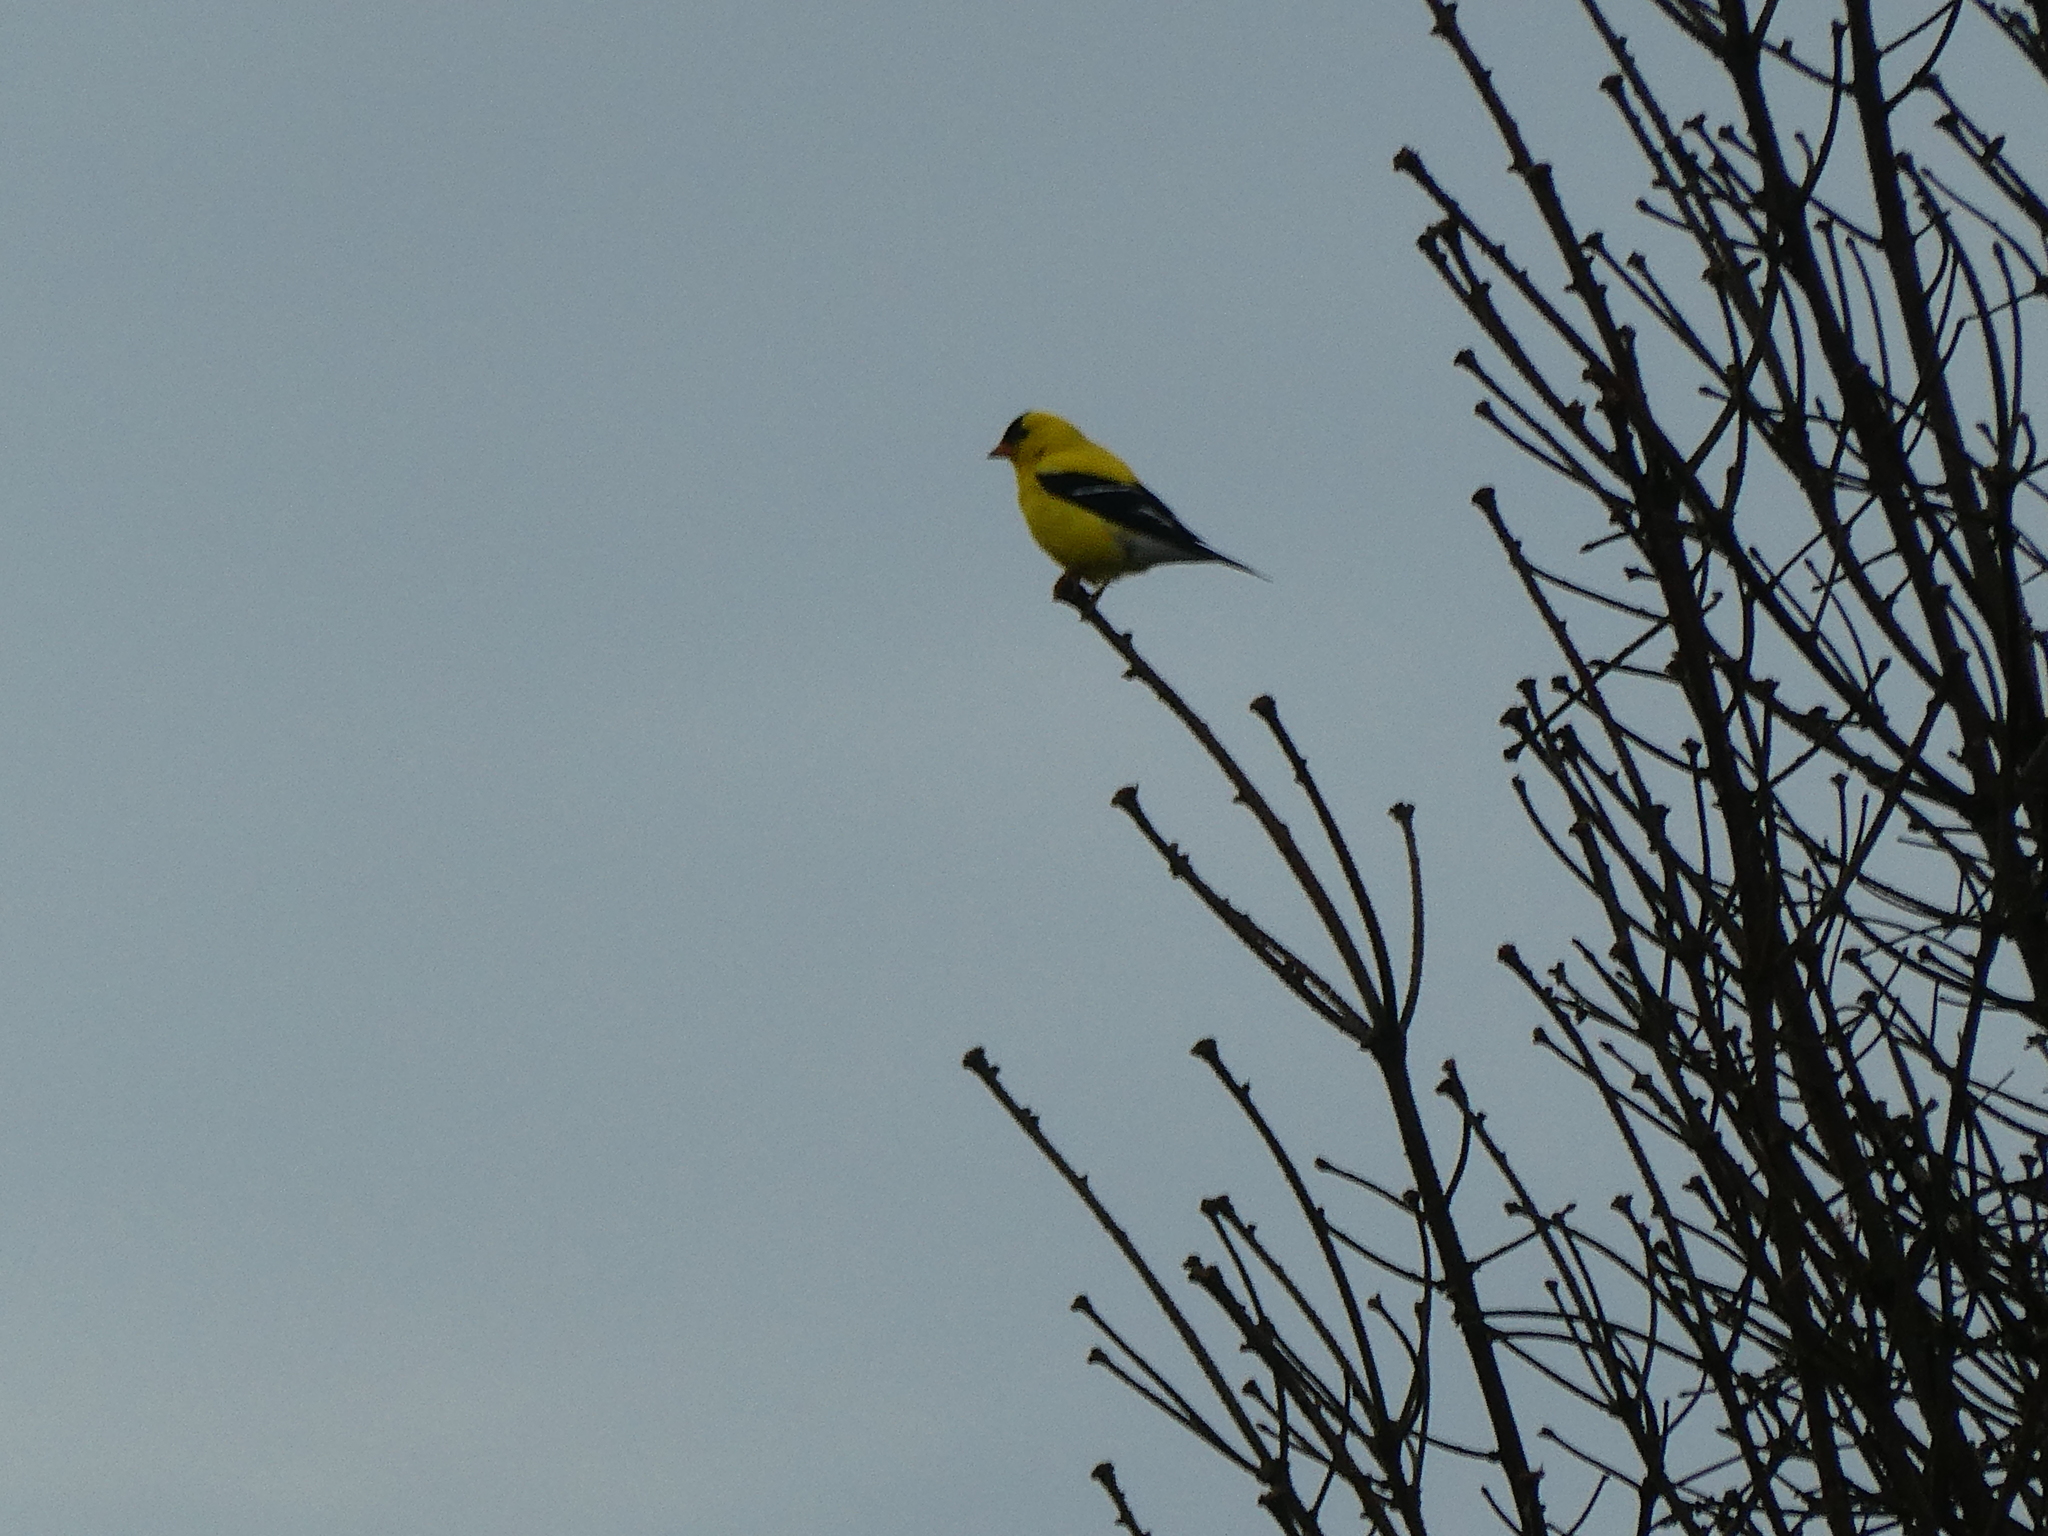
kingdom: Animalia
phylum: Chordata
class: Aves
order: Passeriformes
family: Fringillidae
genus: Spinus
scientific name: Spinus tristis
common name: American goldfinch
